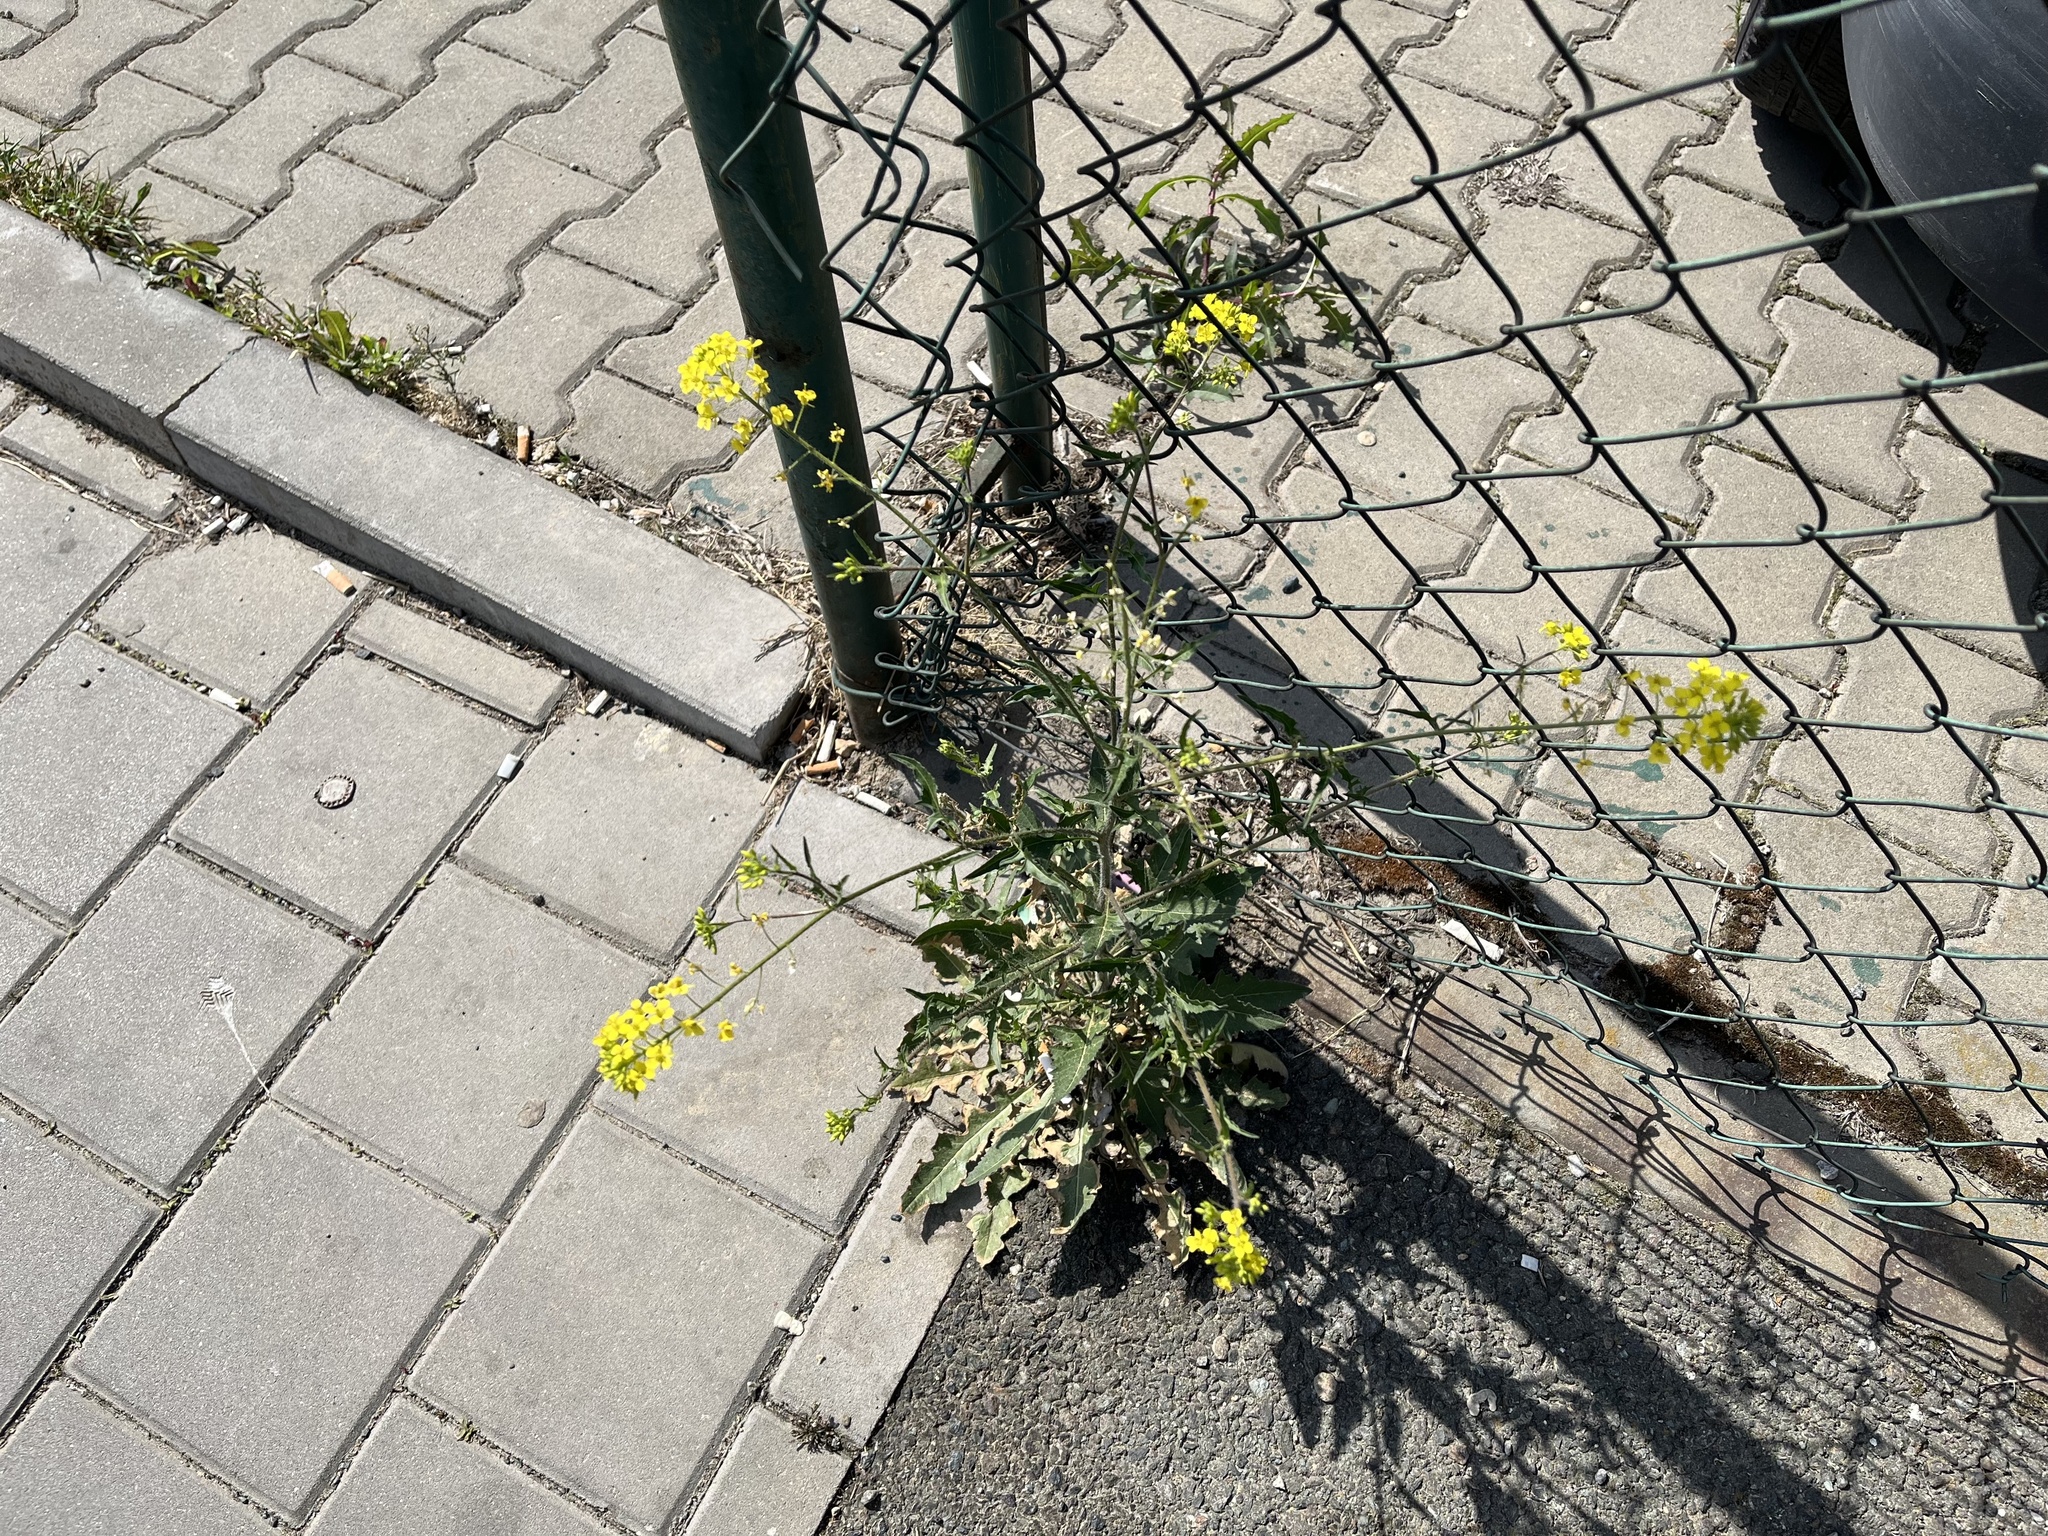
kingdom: Plantae
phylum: Tracheophyta
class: Magnoliopsida
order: Brassicales
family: Brassicaceae
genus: Sisymbrium
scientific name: Sisymbrium loeselii
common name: False london-rocket
